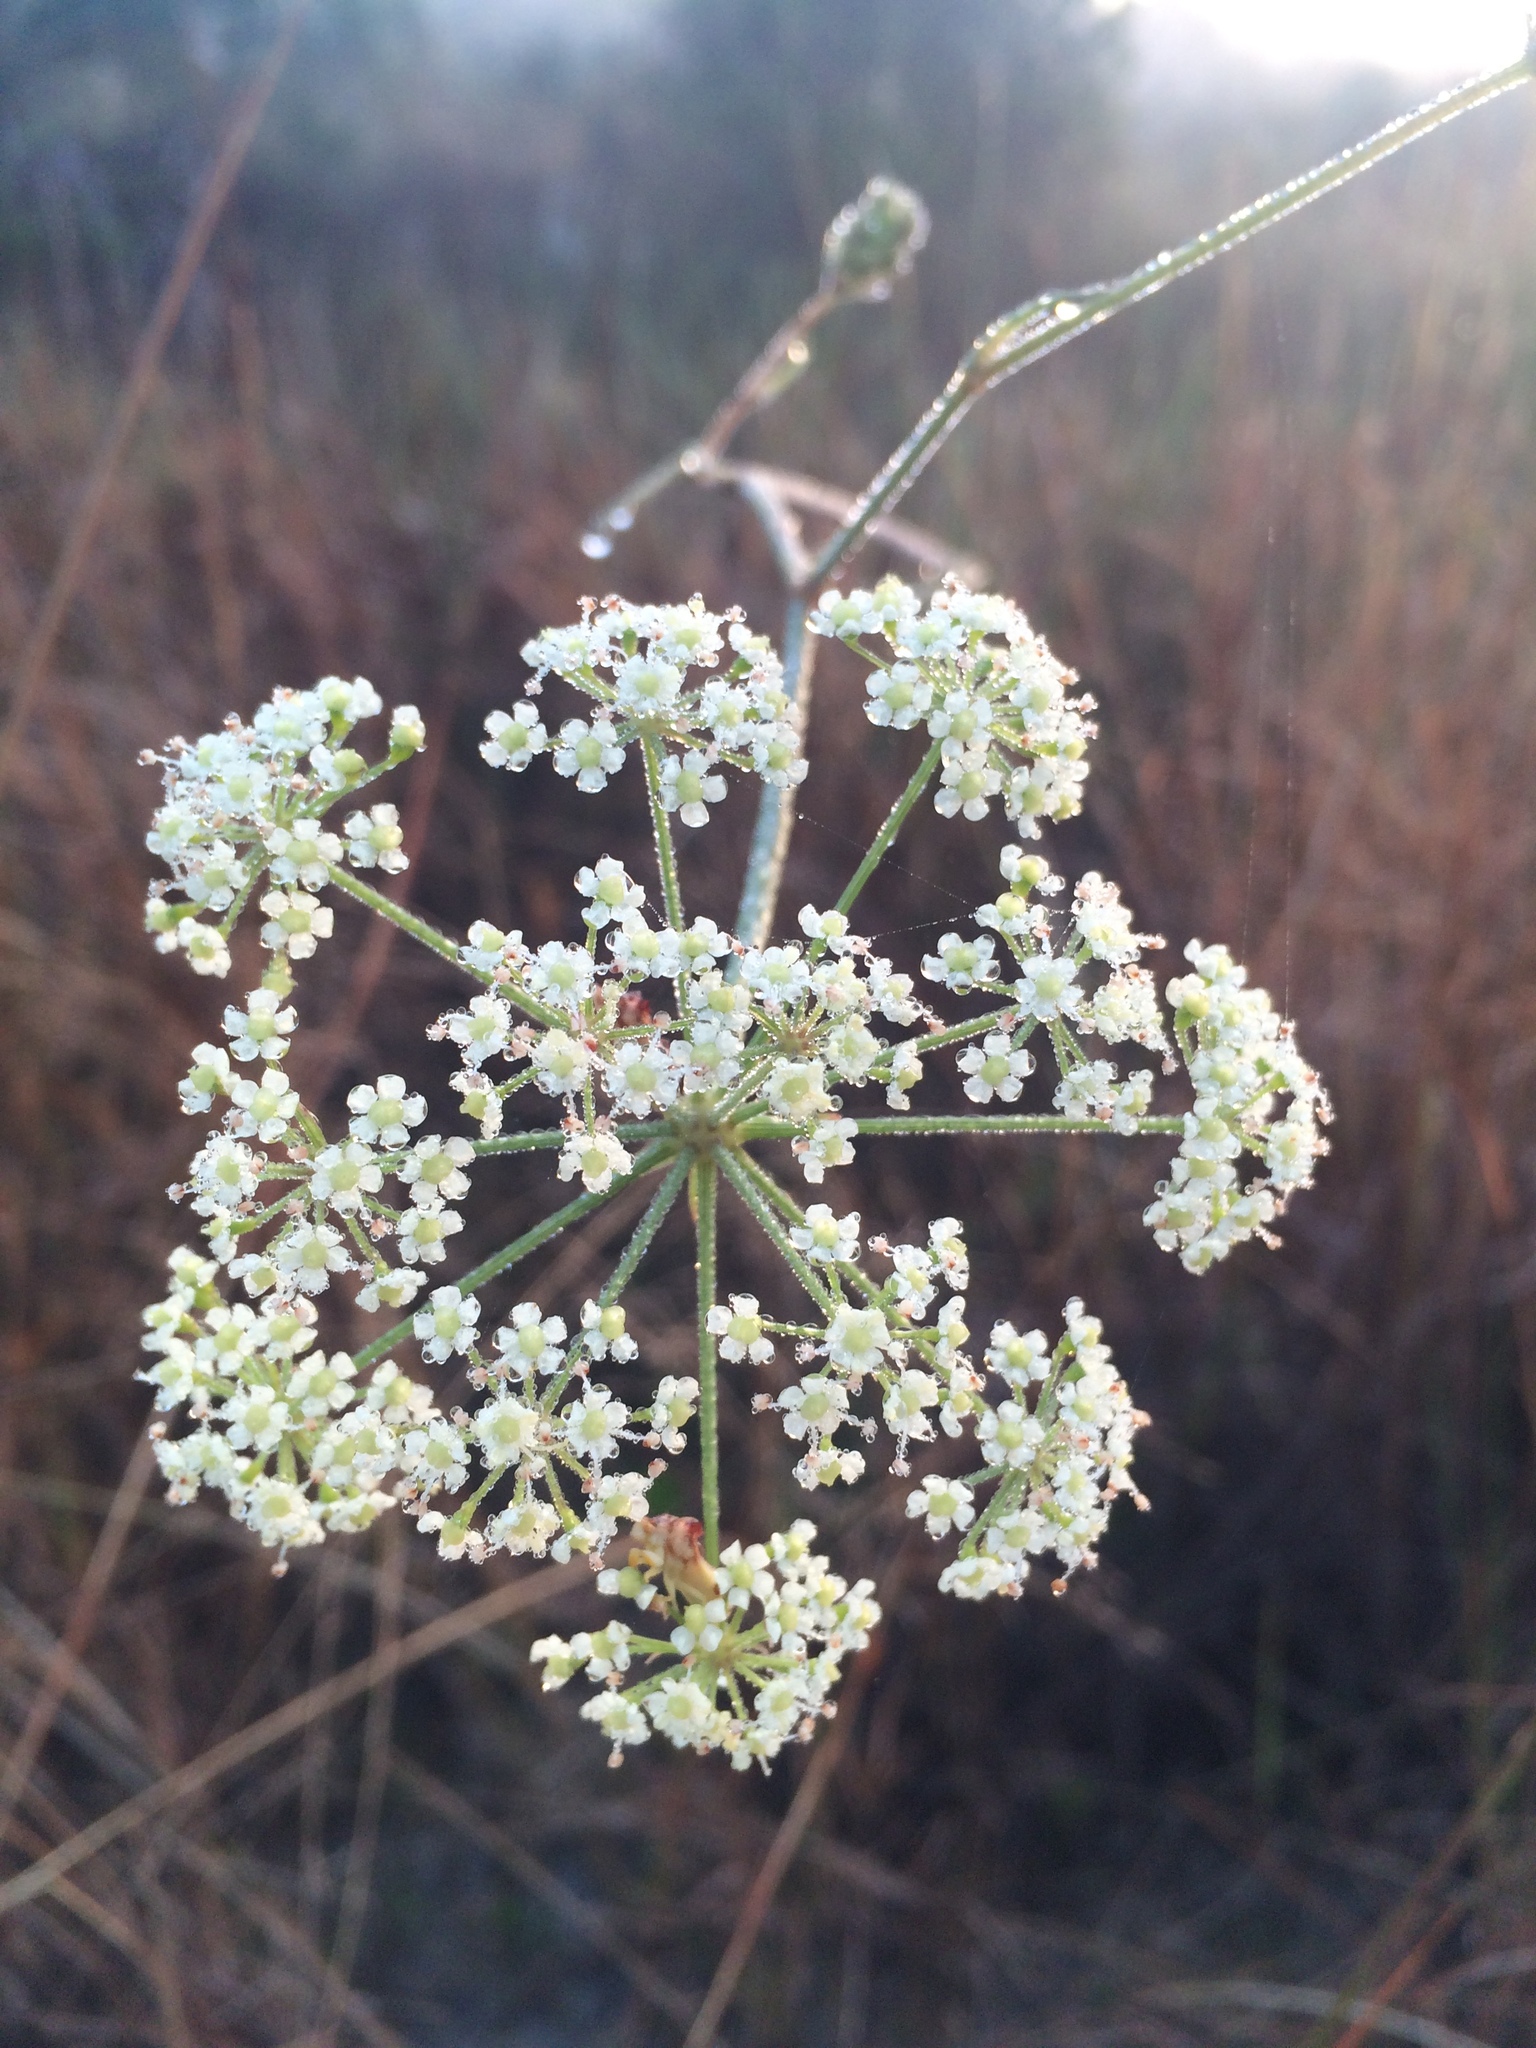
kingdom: Plantae
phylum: Tracheophyta
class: Magnoliopsida
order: Apiales
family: Apiaceae
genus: Tiedemannia
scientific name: Tiedemannia filiformis
